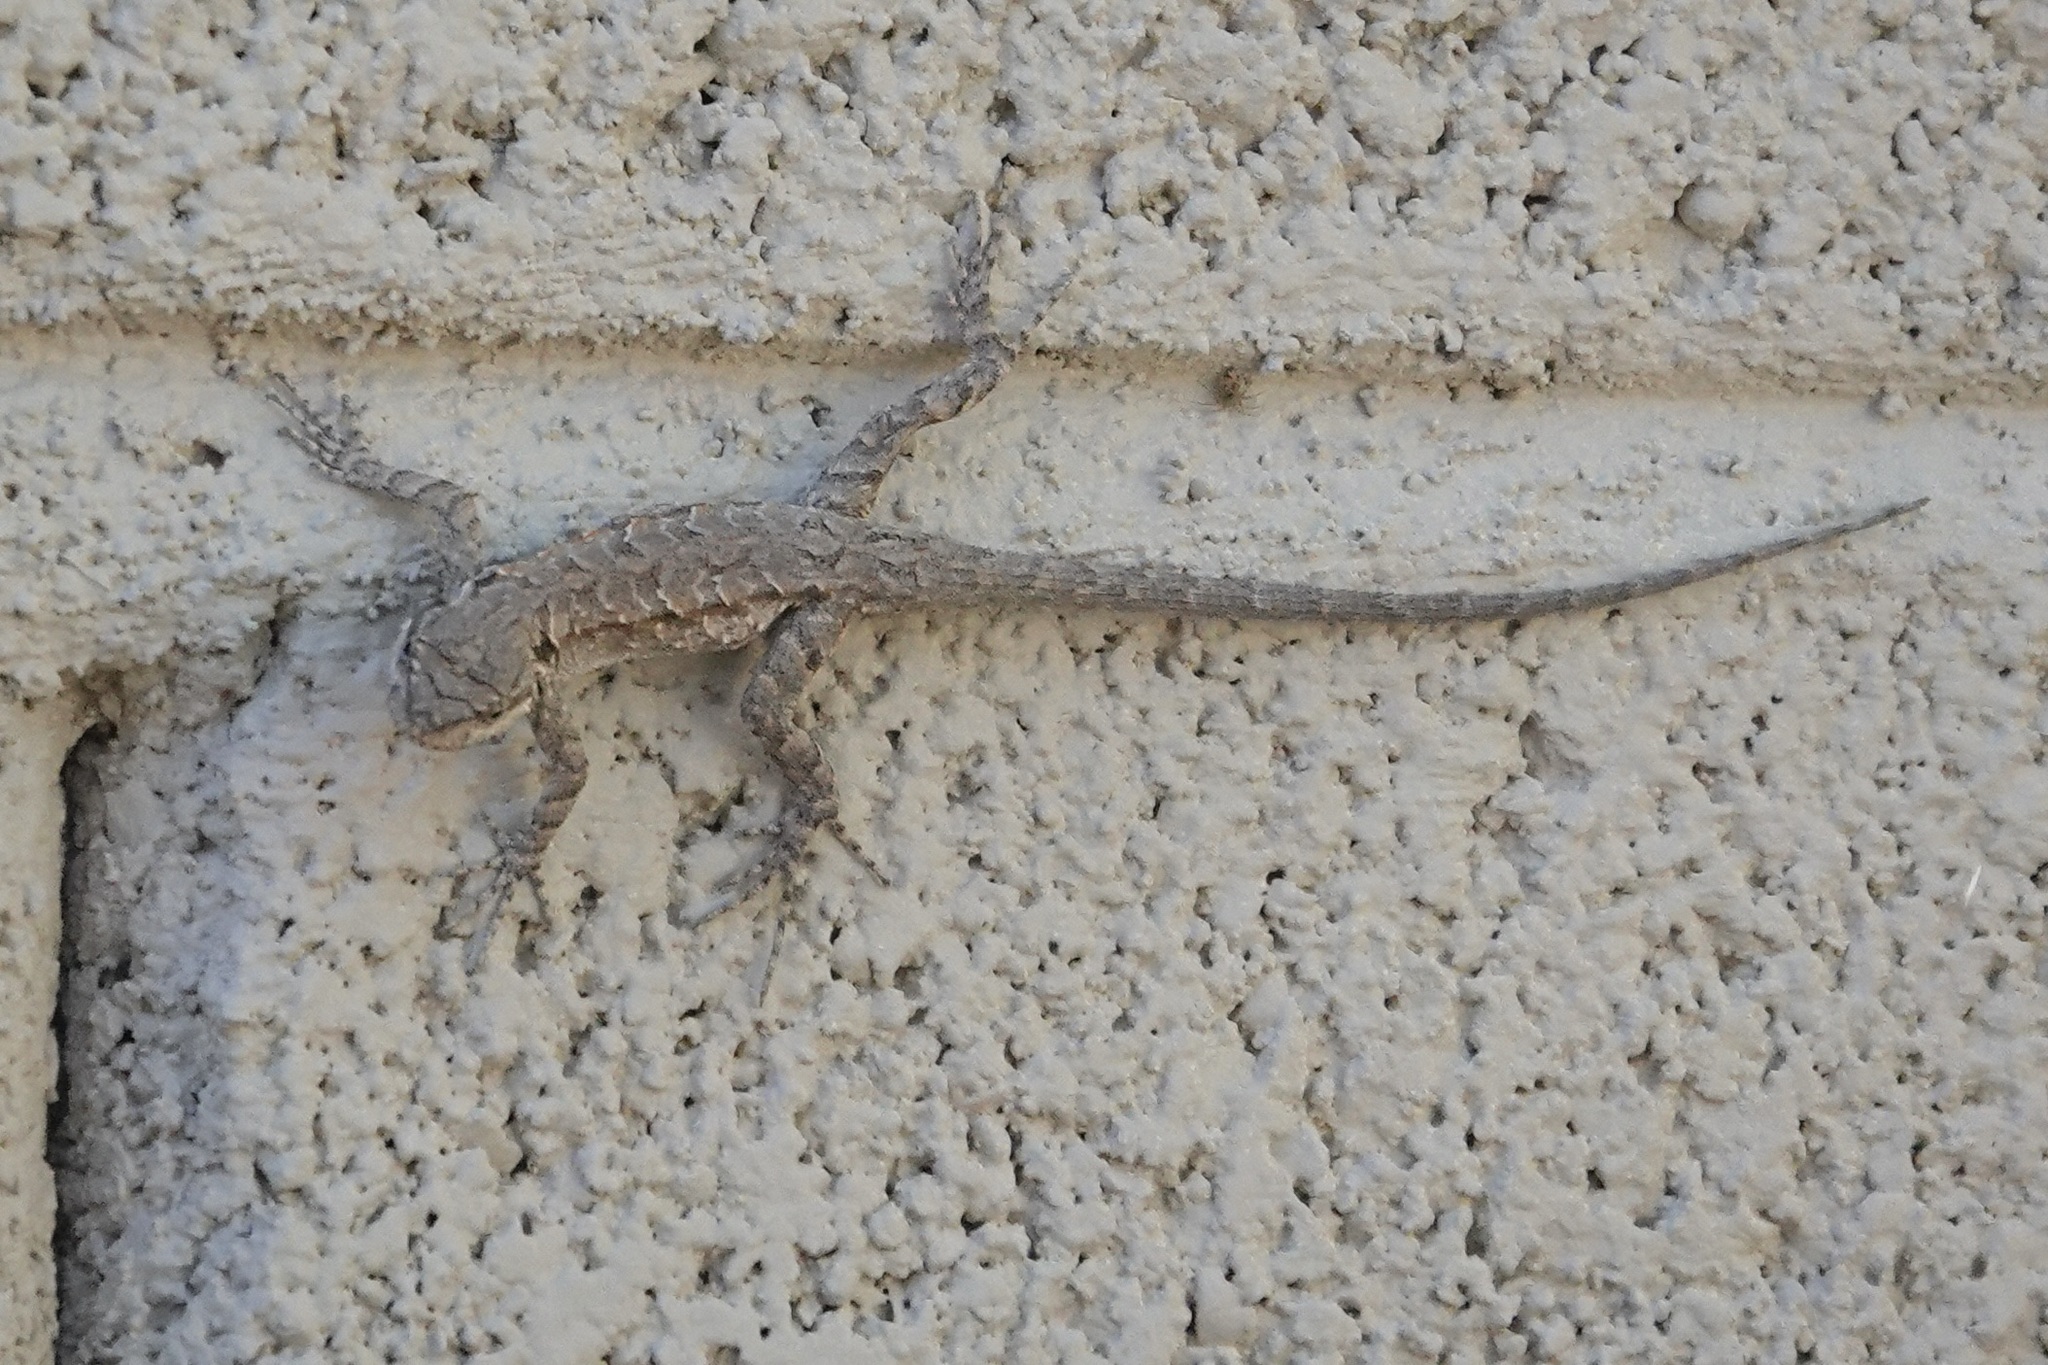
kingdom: Animalia
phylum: Chordata
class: Squamata
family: Phrynosomatidae
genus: Urosaurus
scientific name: Urosaurus ornatus
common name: Ornate tree lizard
